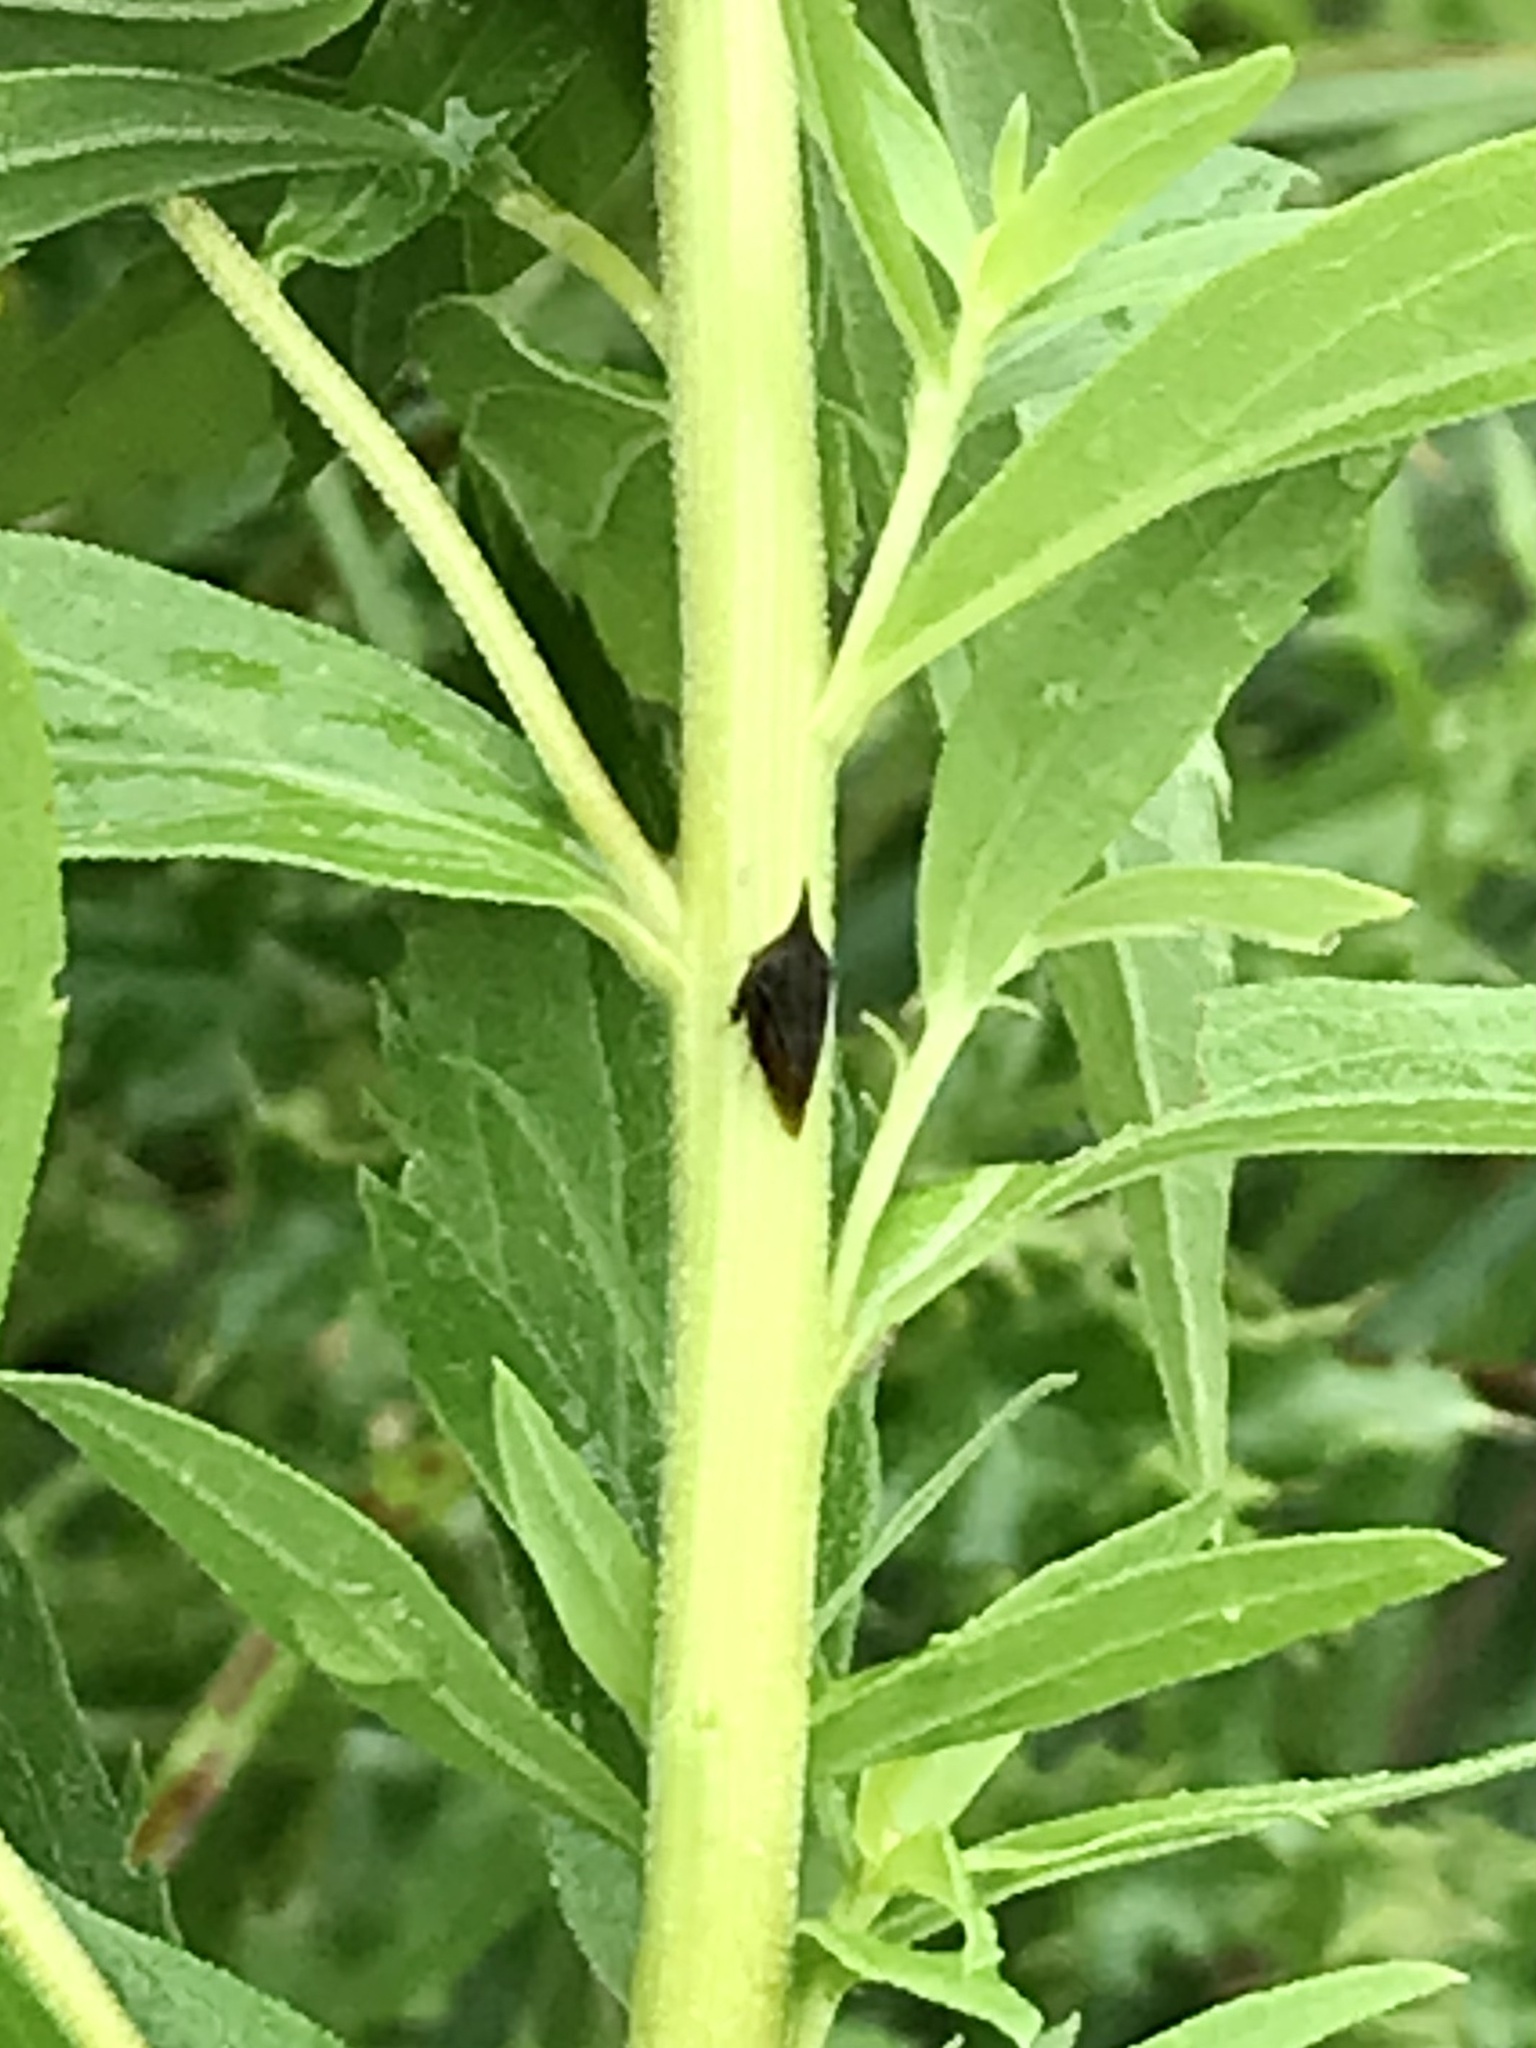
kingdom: Animalia
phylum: Arthropoda
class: Insecta
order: Hemiptera
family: Membracidae
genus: Enchenopa
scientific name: Enchenopa latipes
